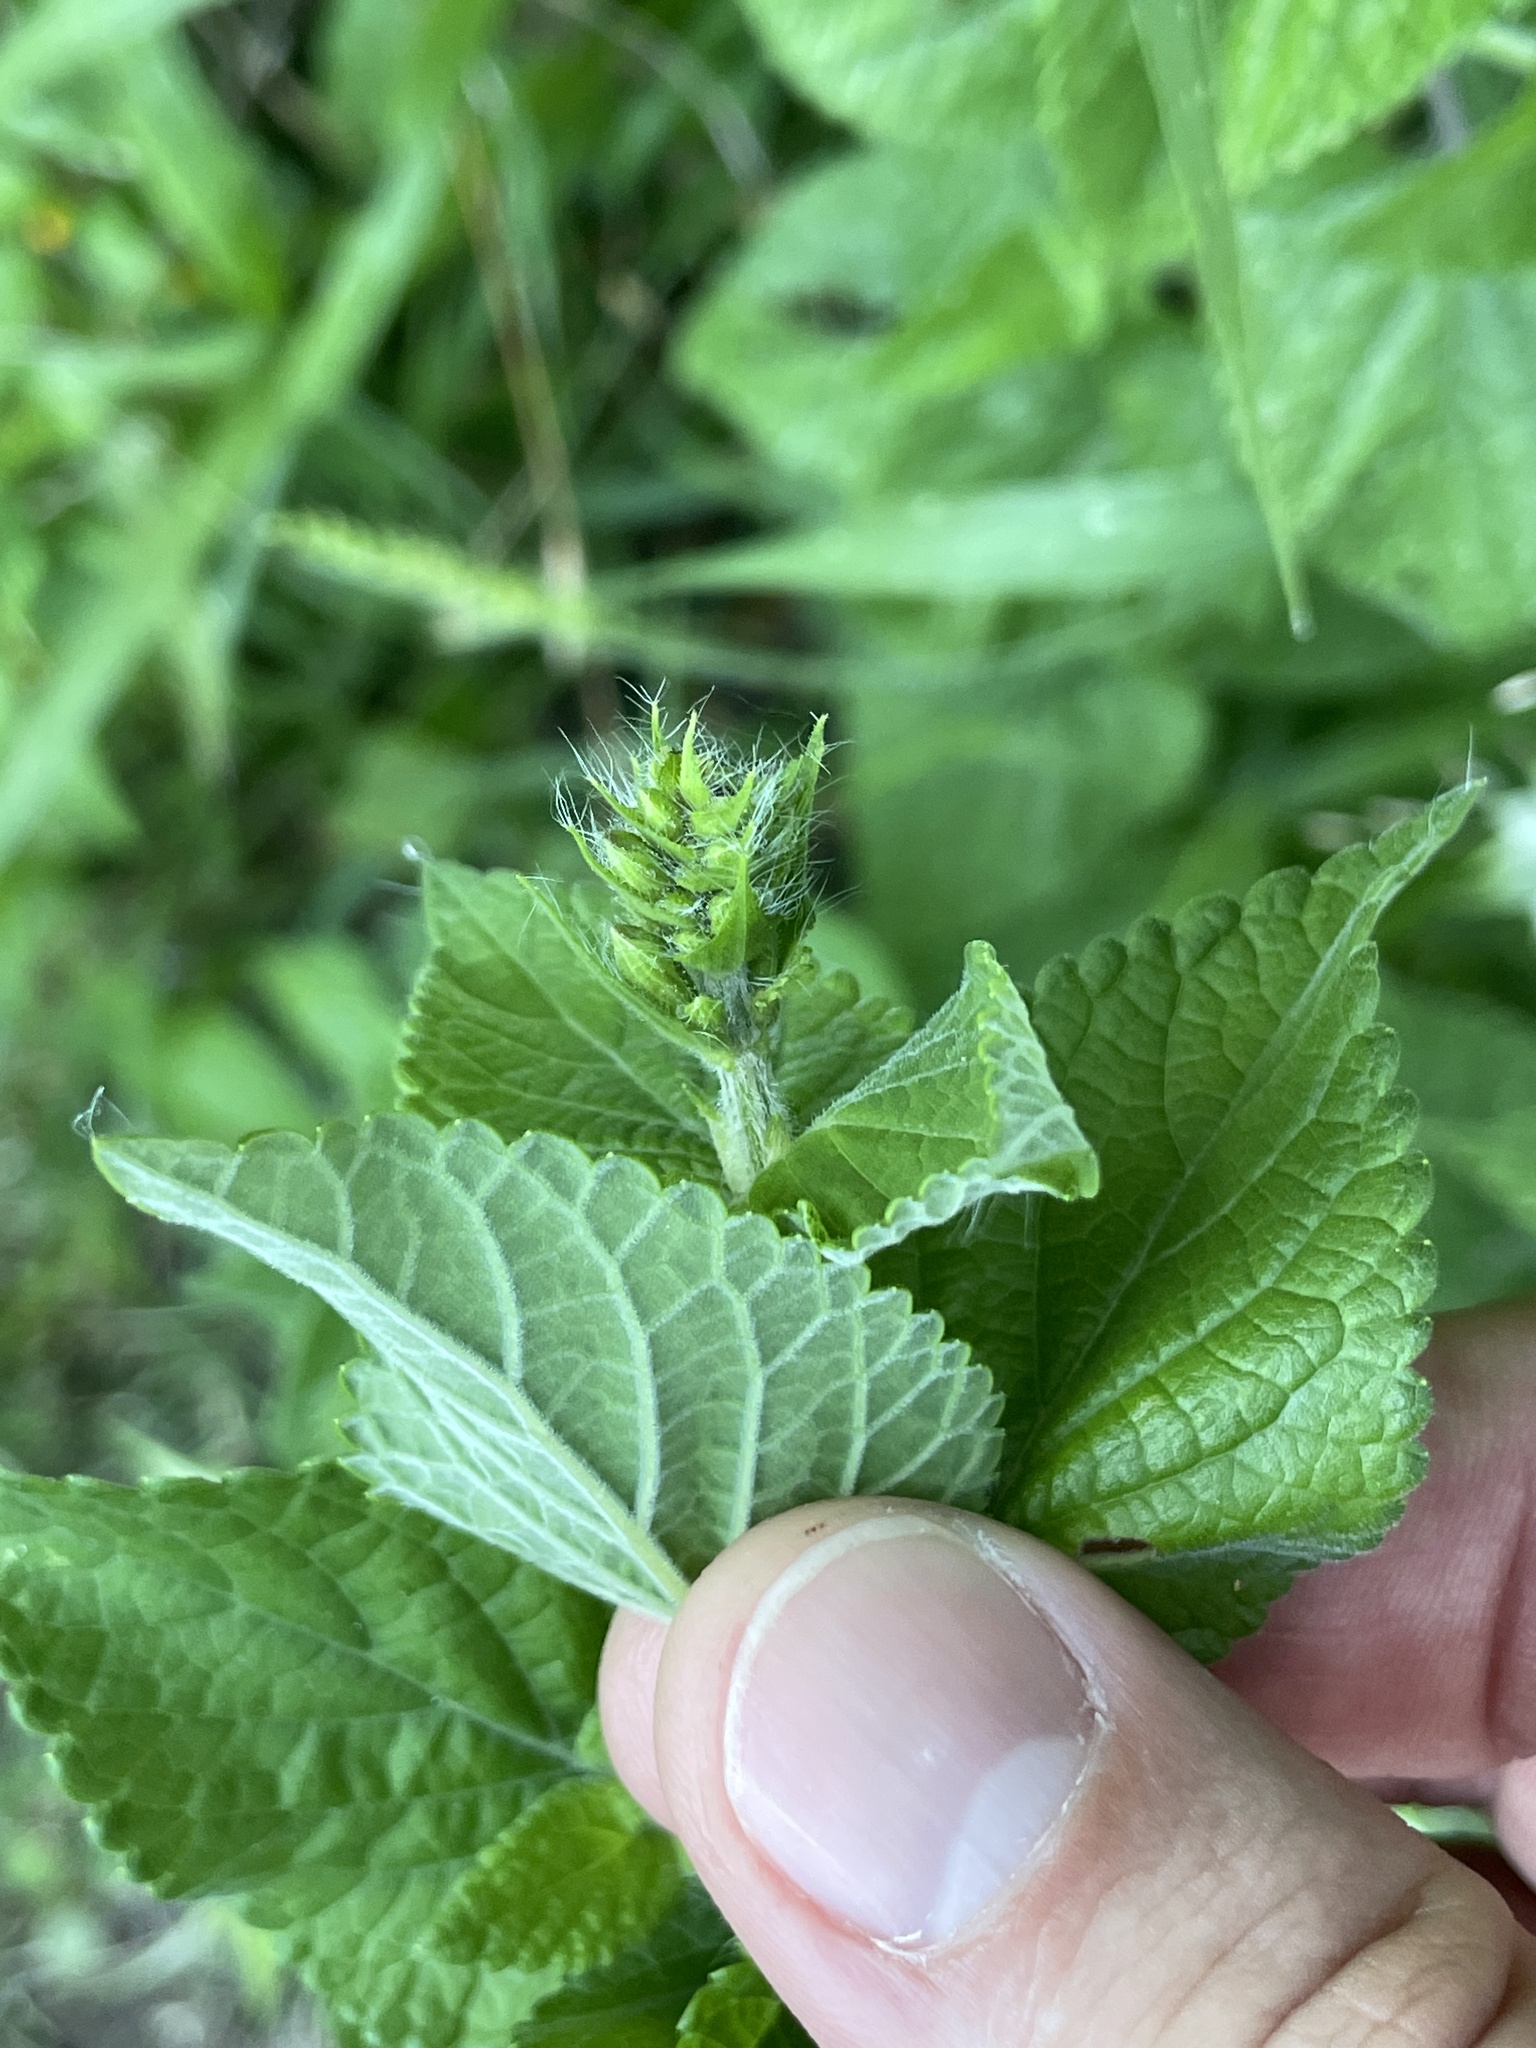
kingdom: Plantae
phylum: Tracheophyta
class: Magnoliopsida
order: Lamiales
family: Lamiaceae
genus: Salvia
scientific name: Salvia coccinea
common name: Blood sage
